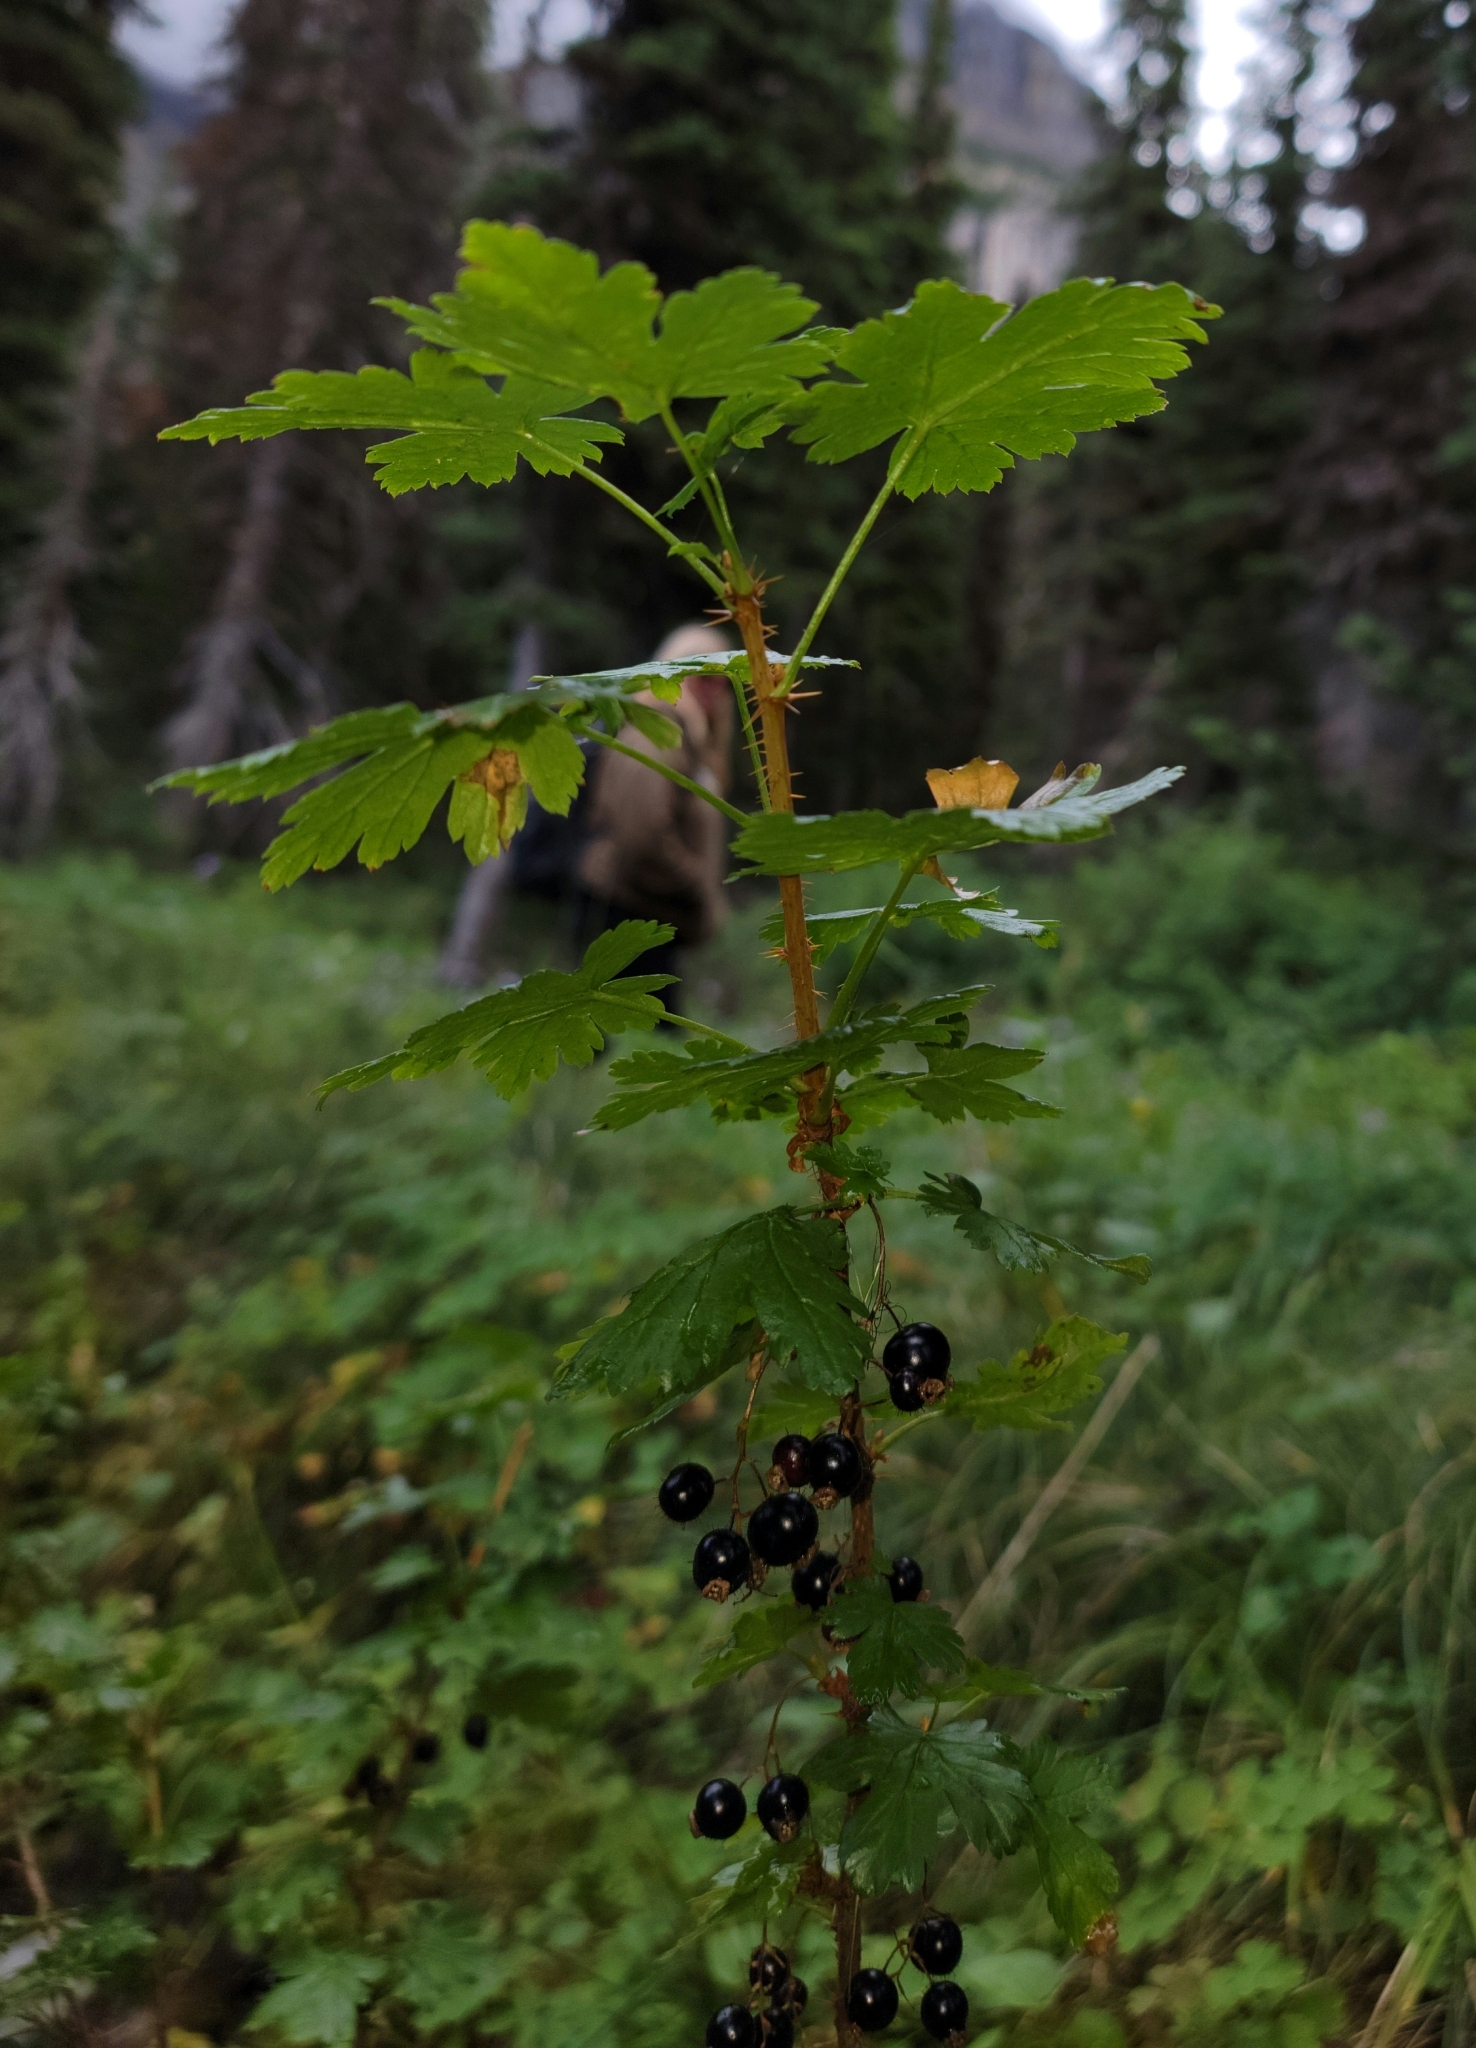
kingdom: Plantae
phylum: Tracheophyta
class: Magnoliopsida
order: Saxifragales
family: Grossulariaceae
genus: Ribes
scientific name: Ribes lacustre
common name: Black gooseberry
